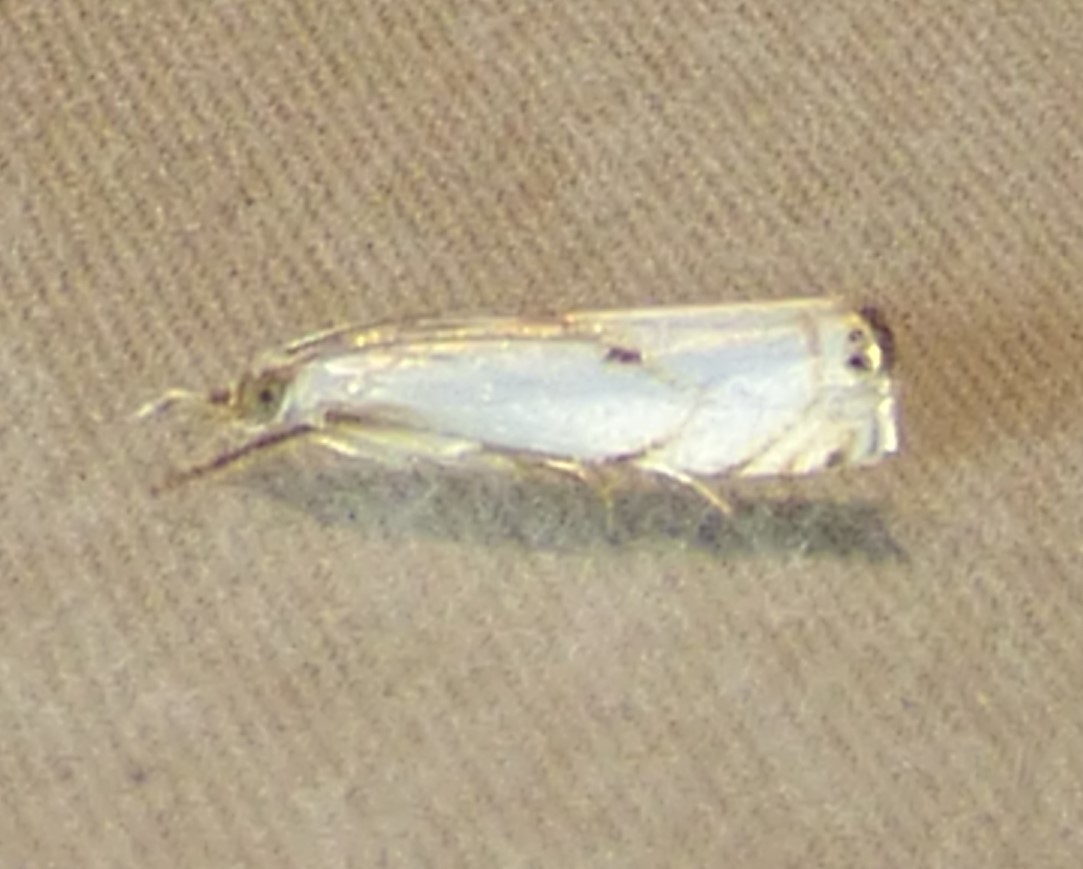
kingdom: Animalia
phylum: Arthropoda
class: Insecta
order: Lepidoptera
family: Crambidae
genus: Microcrambus
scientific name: Microcrambus biguttellus
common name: Gold-stripe grass-veneer moth
